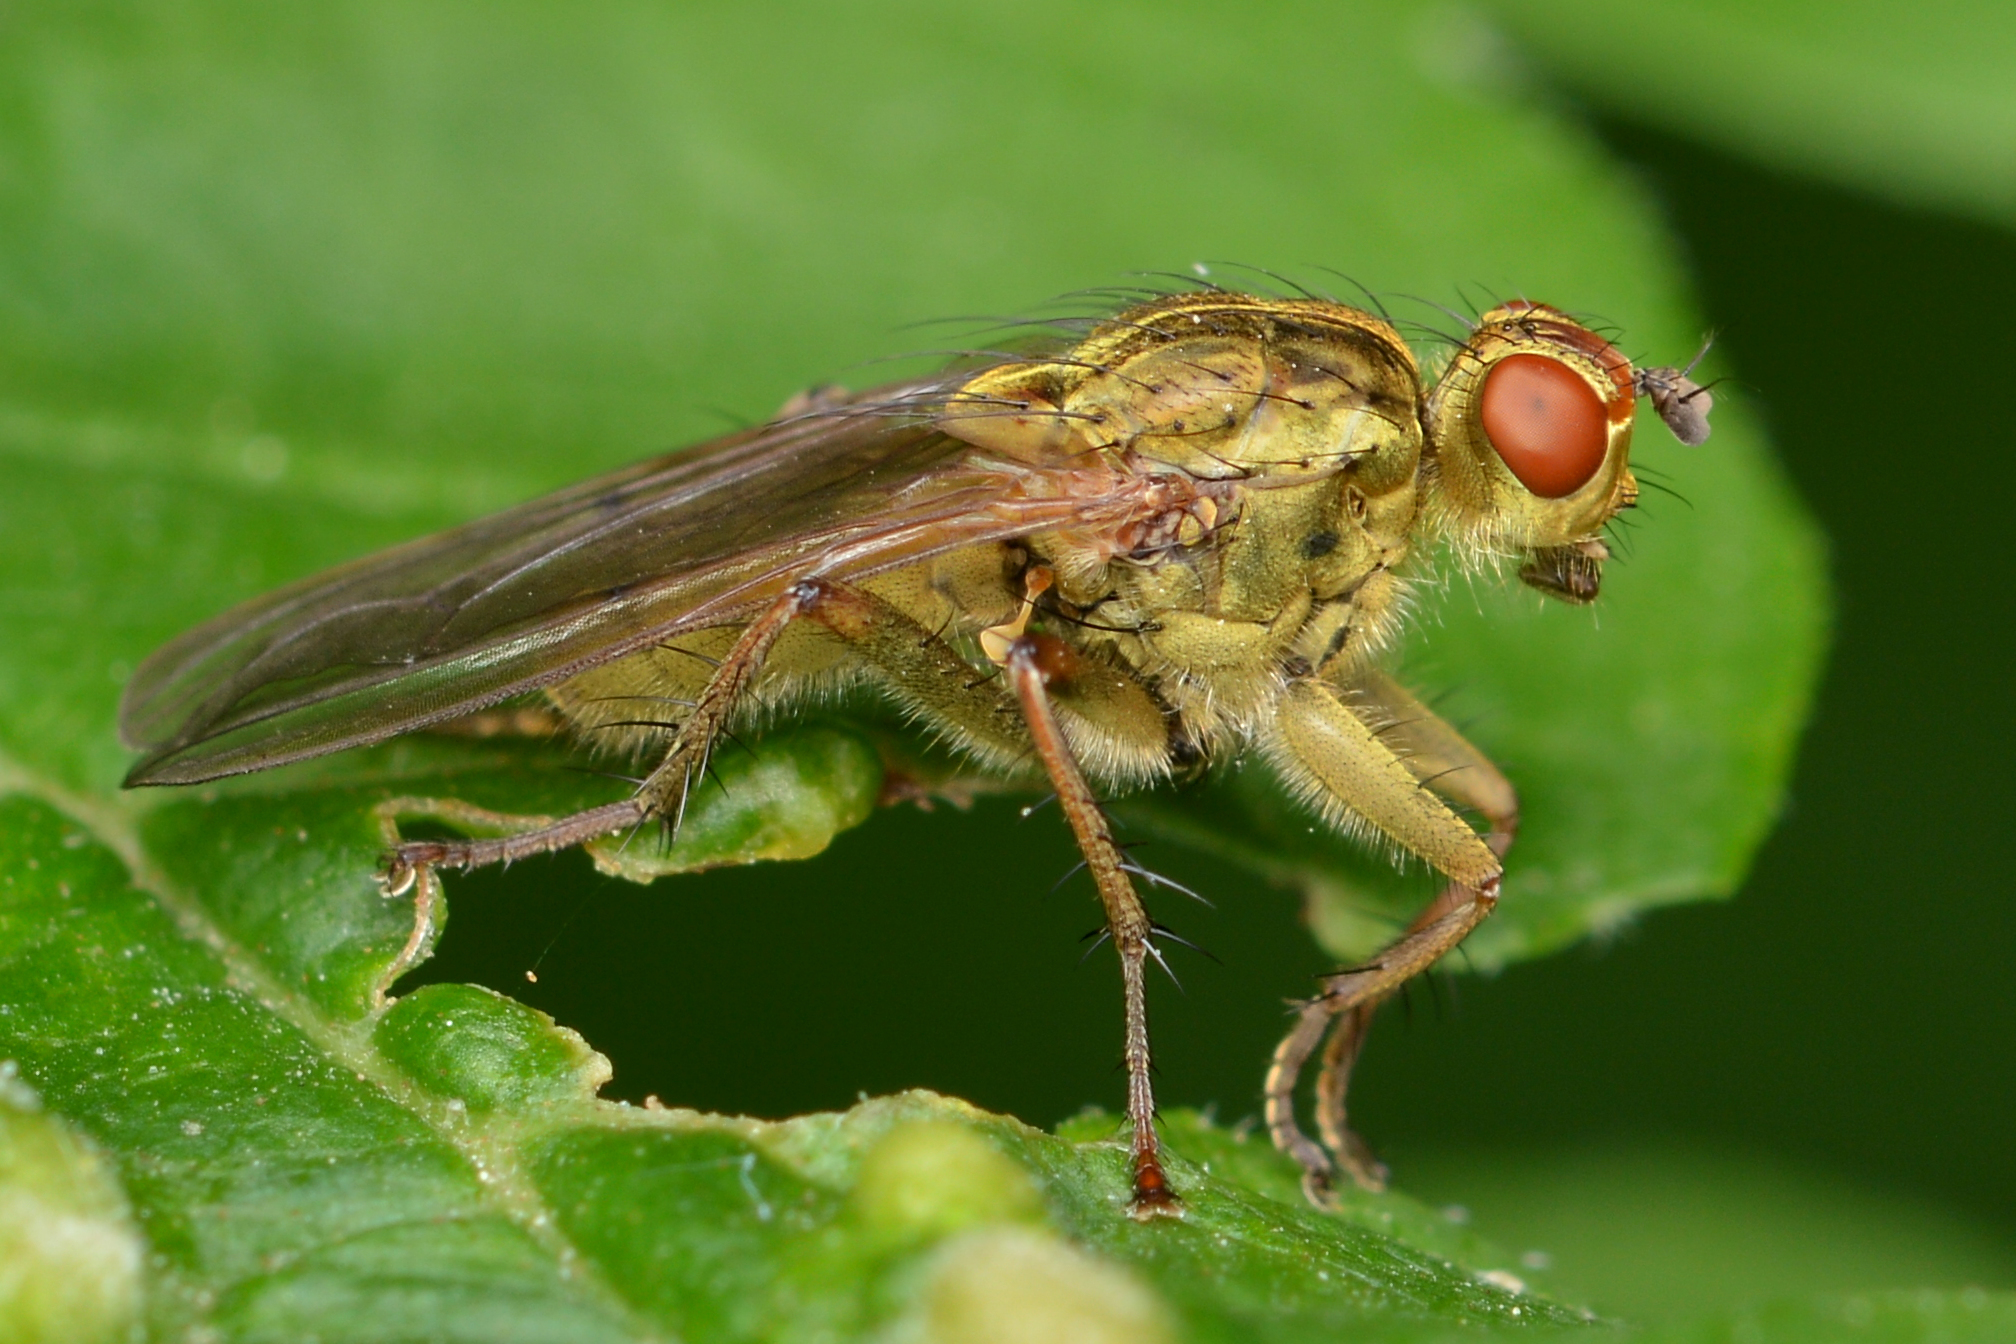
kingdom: Animalia
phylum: Arthropoda
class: Insecta
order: Diptera
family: Scathophagidae
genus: Scathophaga
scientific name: Scathophaga stercoraria
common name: Yellow dung fly
